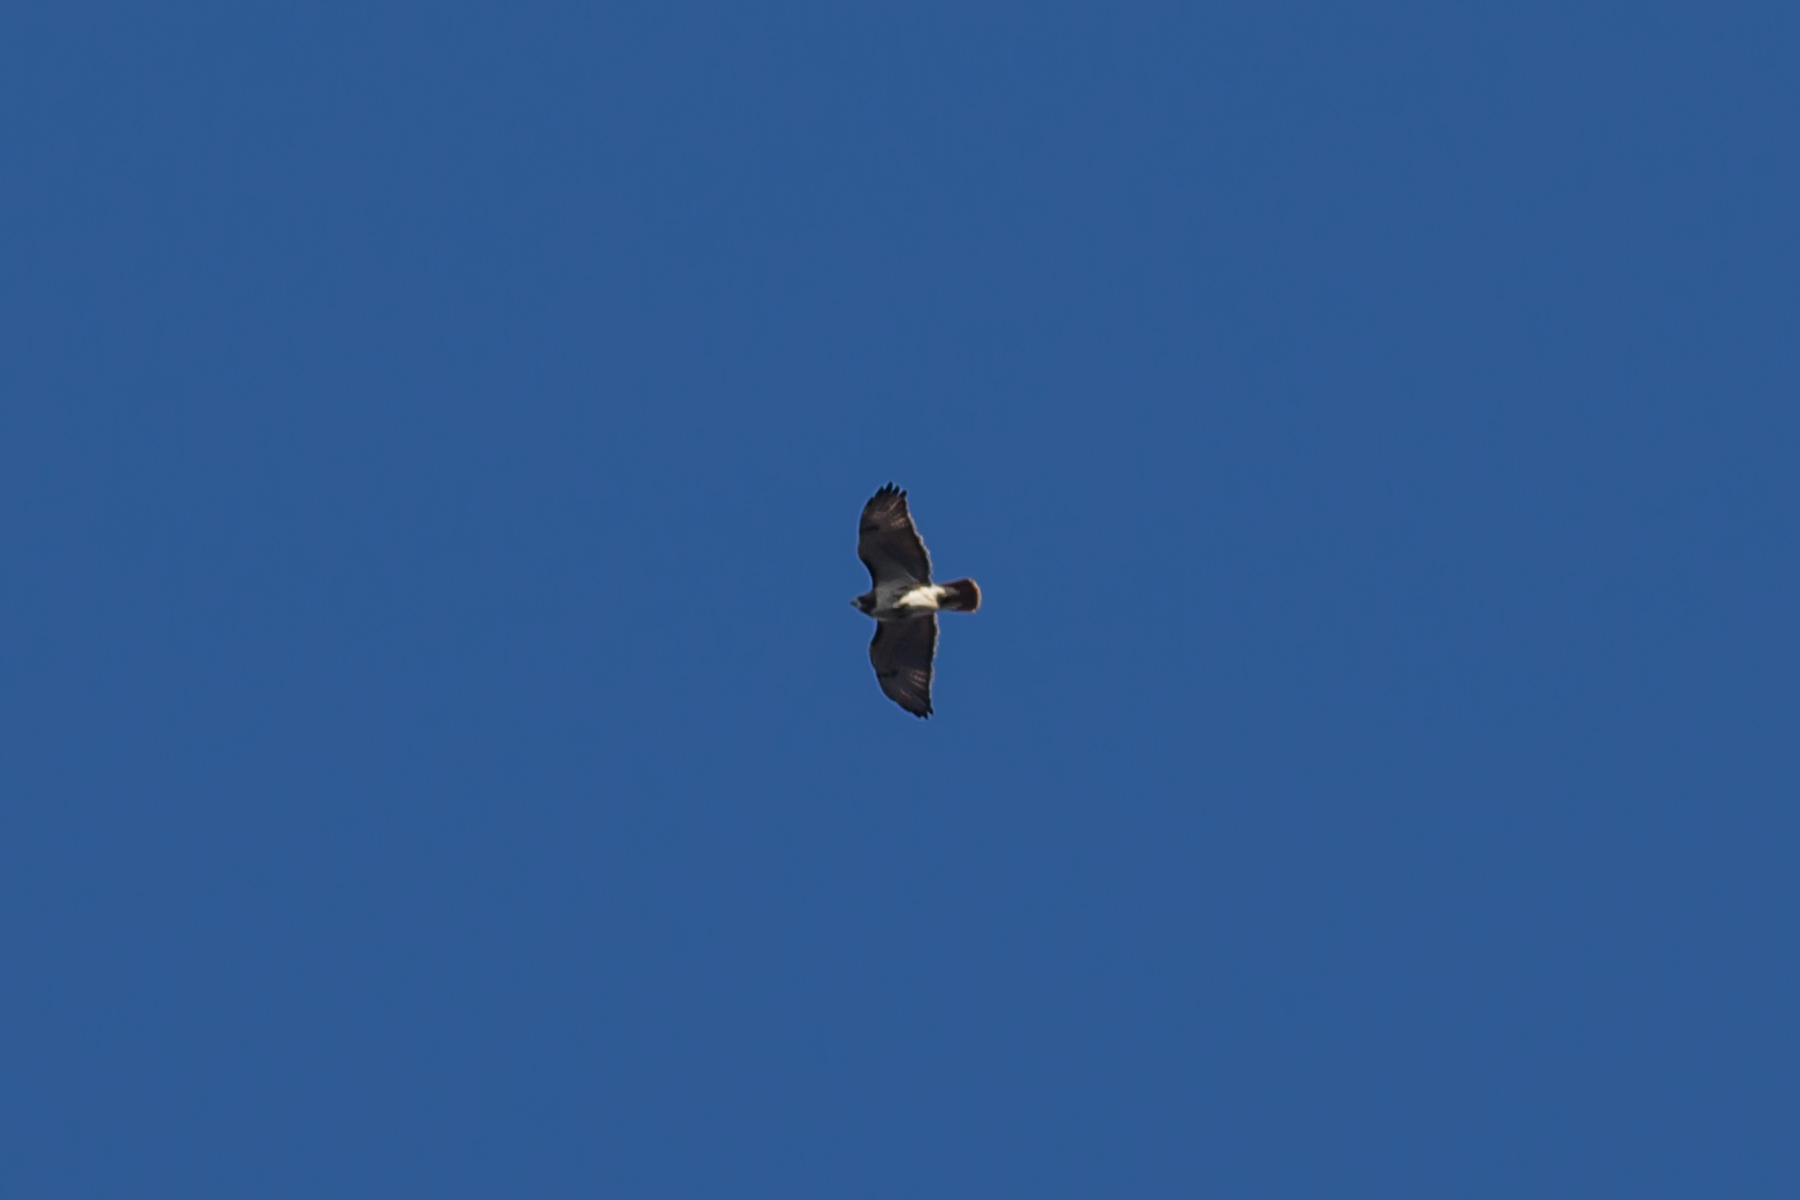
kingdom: Animalia
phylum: Chordata
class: Aves
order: Accipitriformes
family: Accipitridae
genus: Buteo
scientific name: Buteo jamaicensis
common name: Red-tailed hawk
